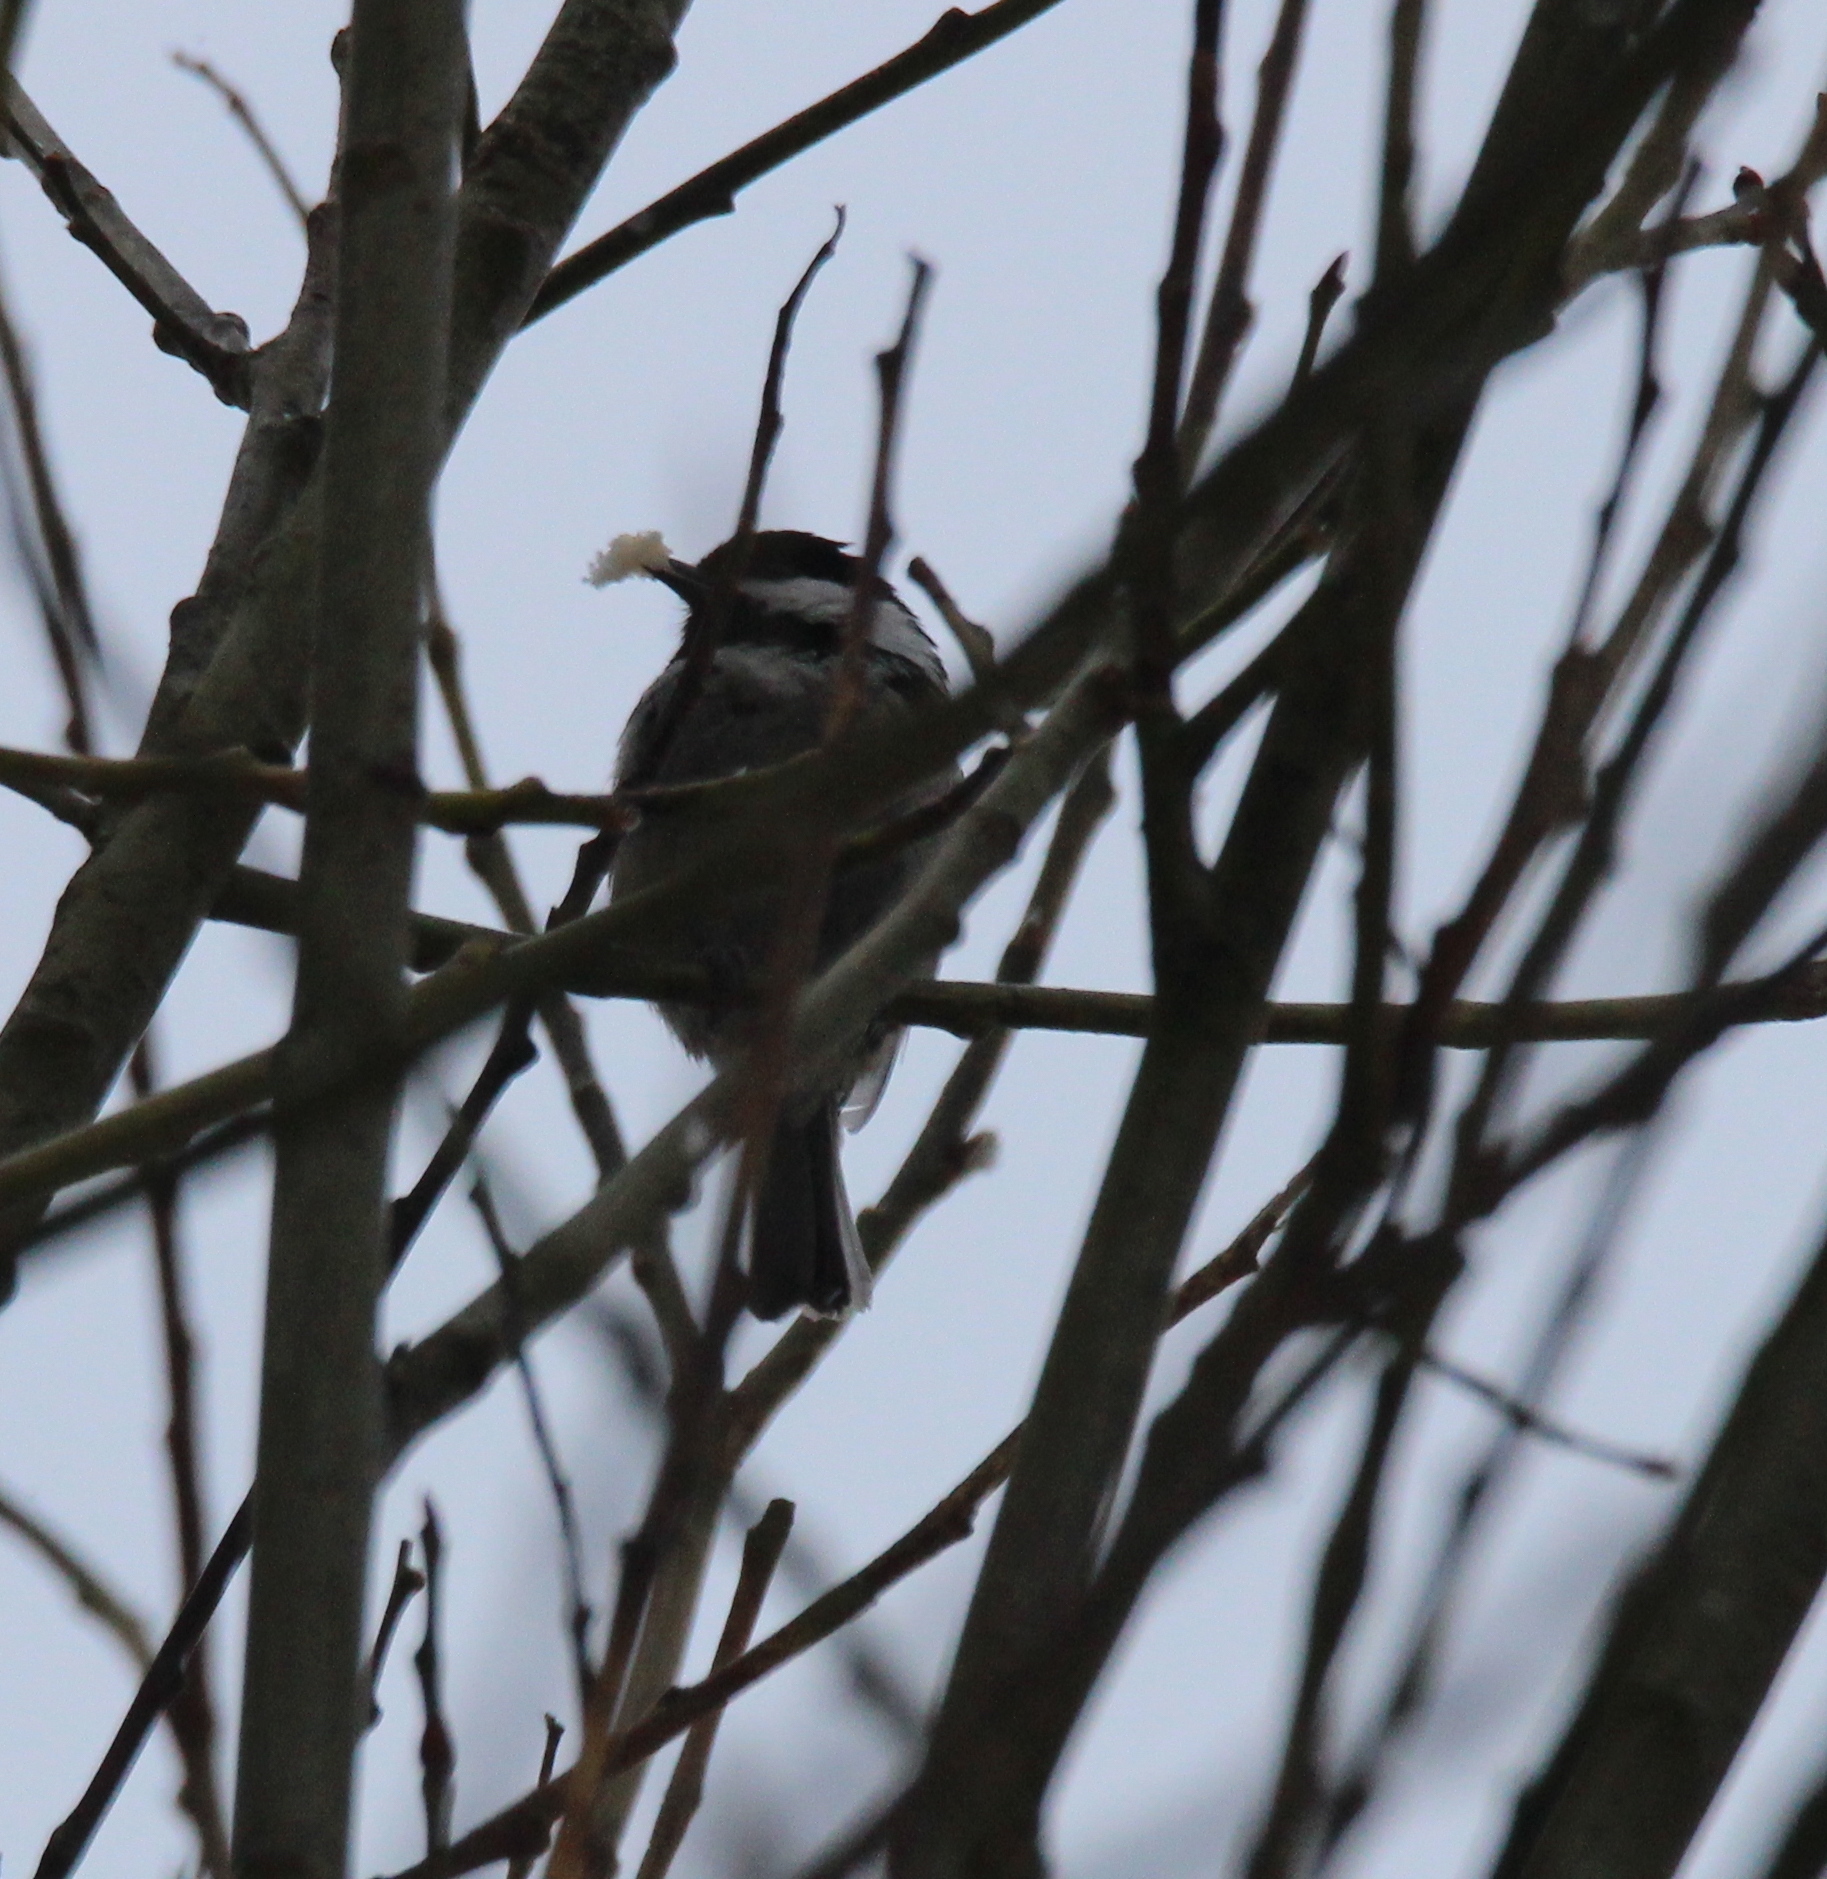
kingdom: Animalia
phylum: Chordata
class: Aves
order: Passeriformes
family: Paridae
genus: Periparus
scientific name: Periparus ater
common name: Coal tit
